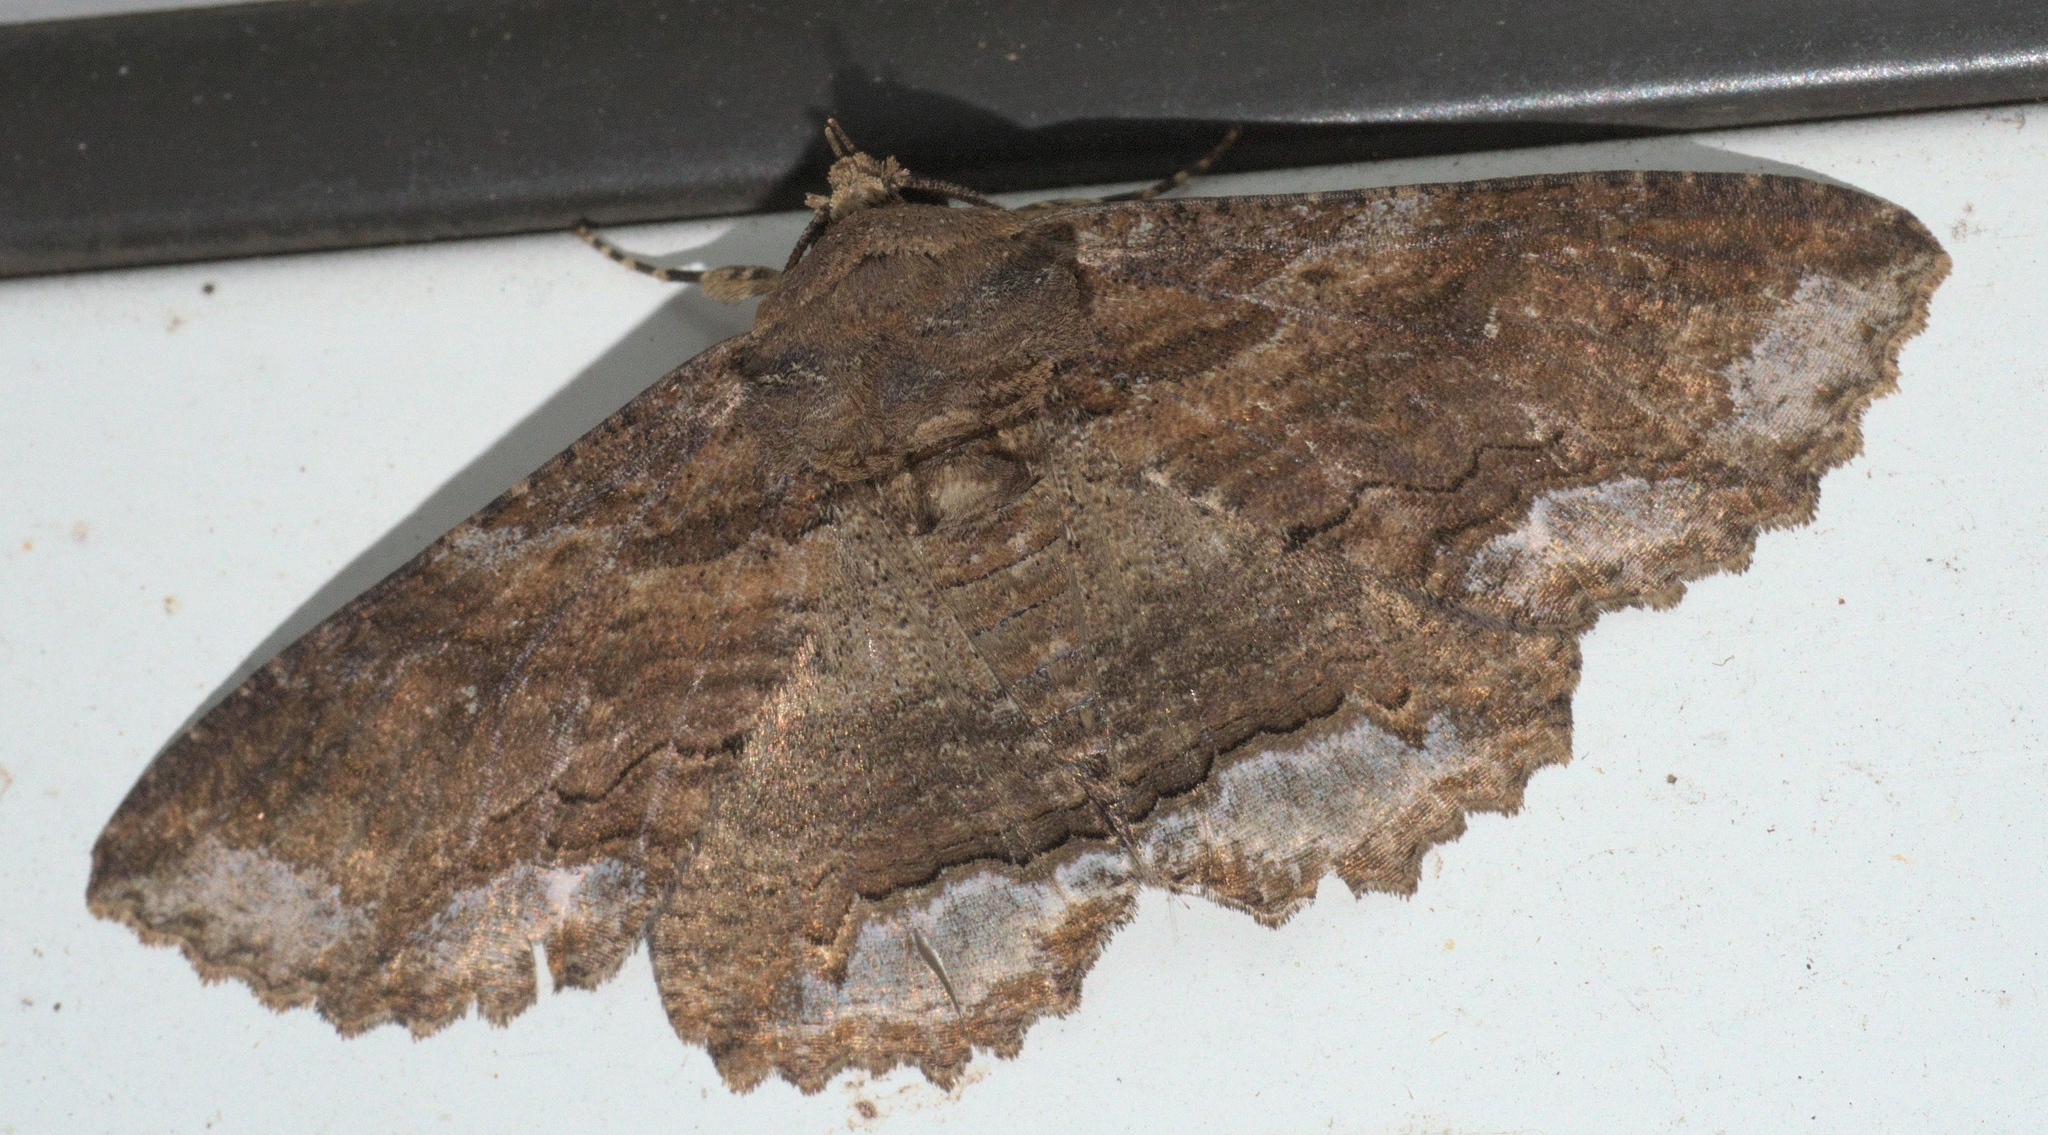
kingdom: Animalia
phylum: Arthropoda
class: Insecta
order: Lepidoptera
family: Erebidae
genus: Zale
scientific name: Zale lunata
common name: Lunate zale moth
